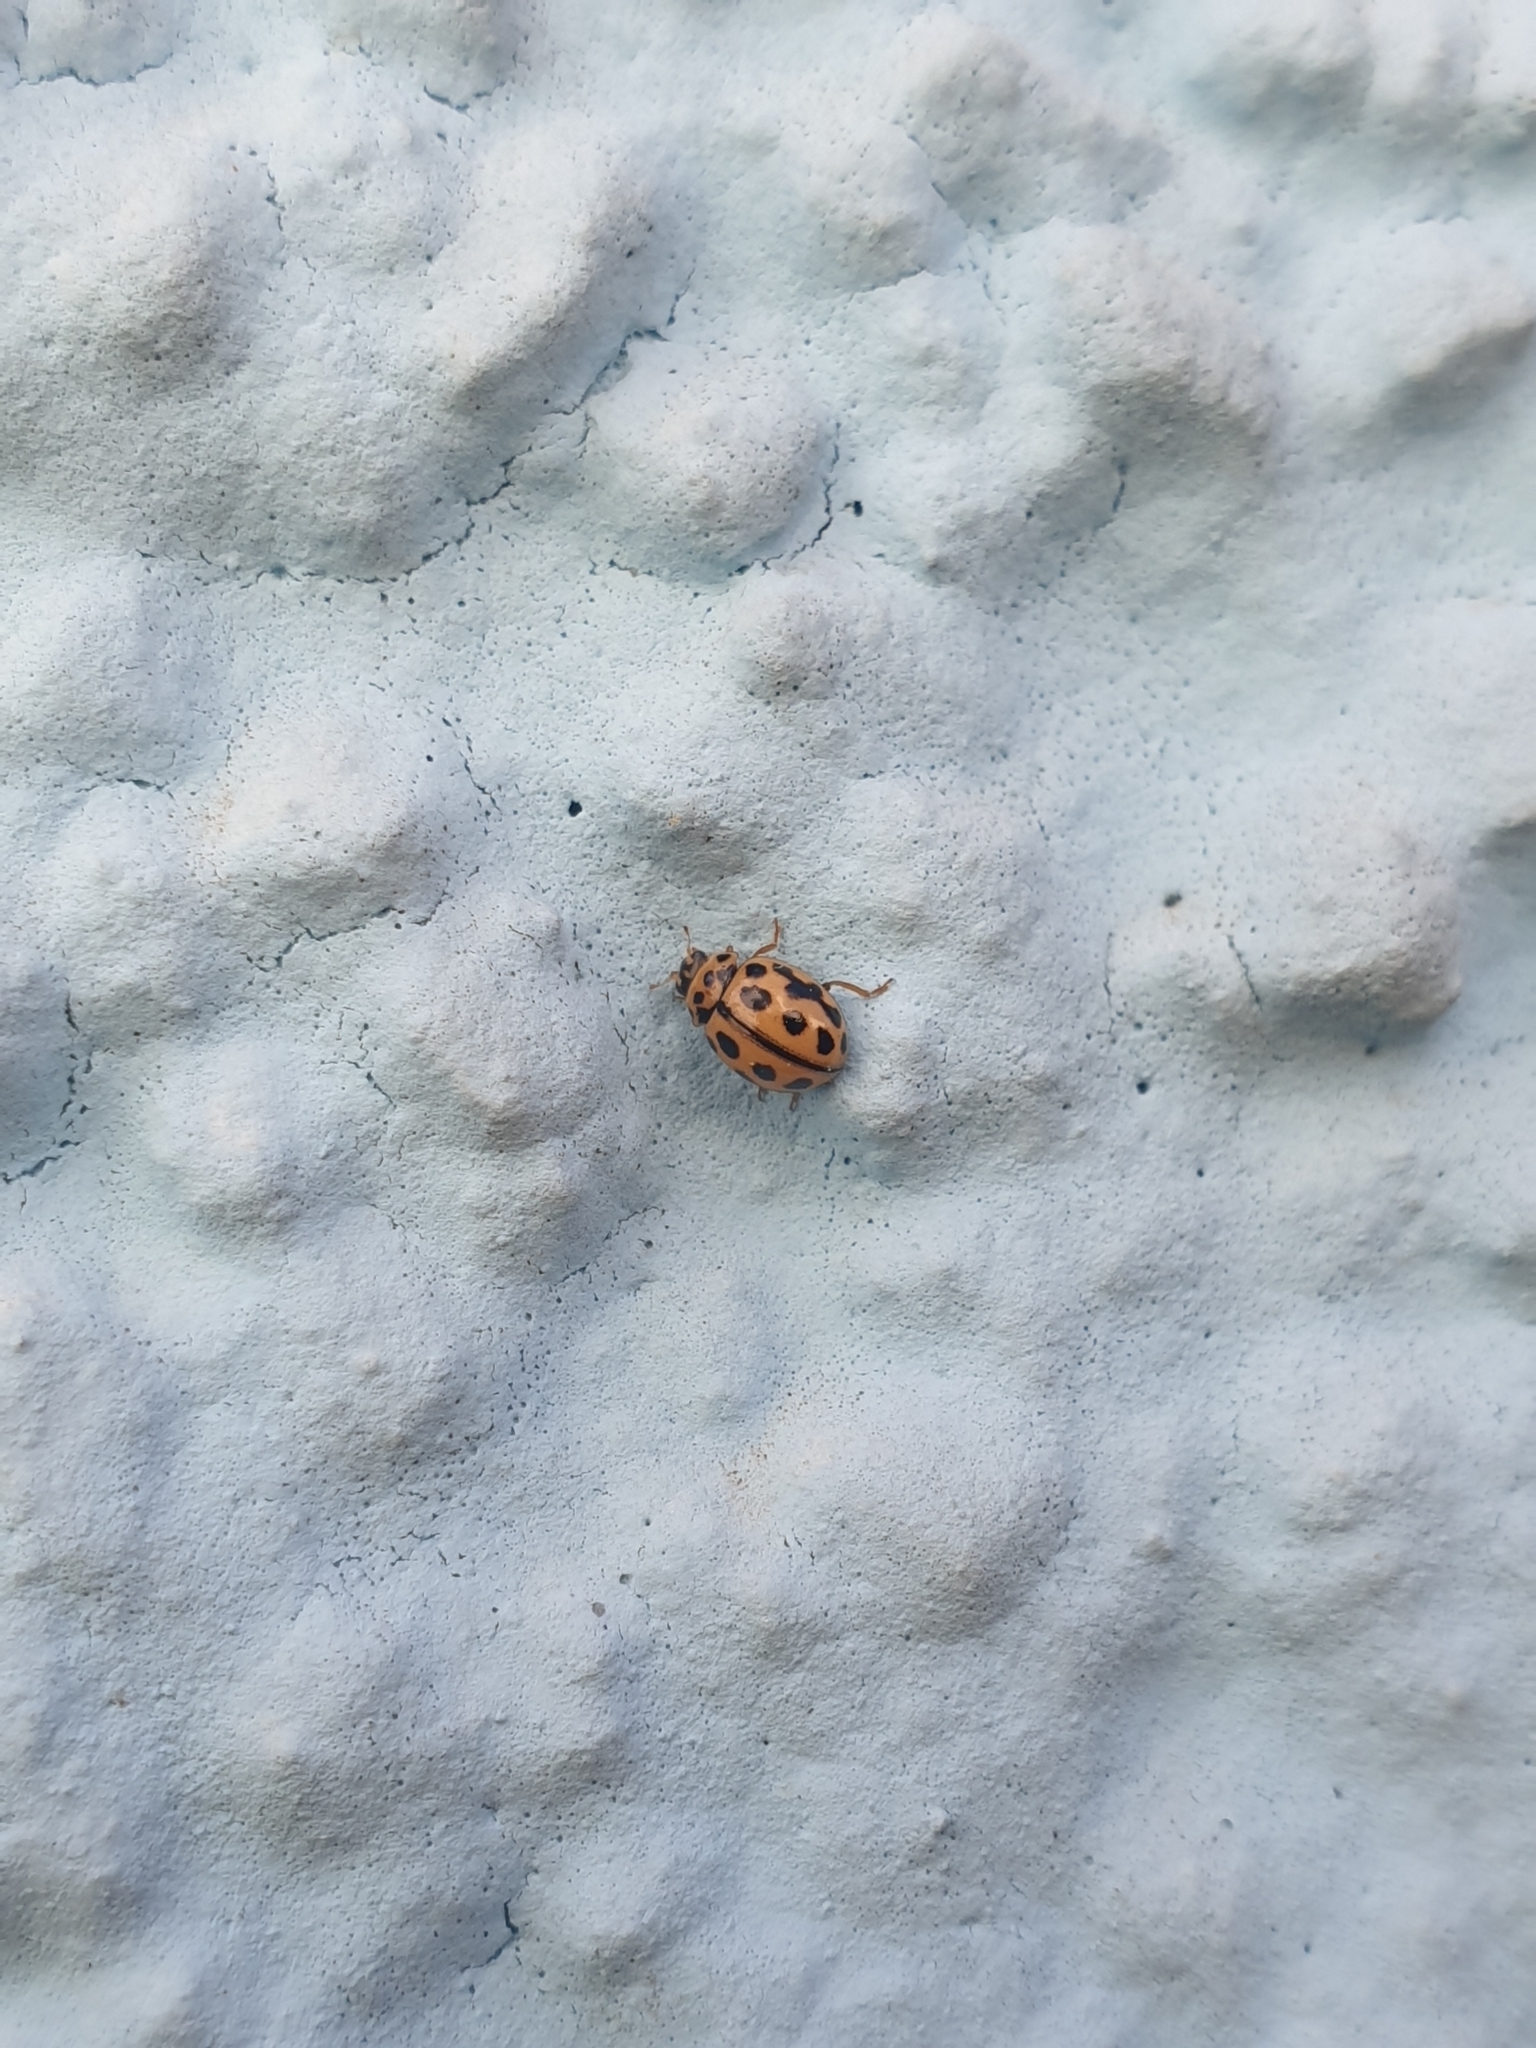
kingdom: Animalia
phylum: Arthropoda
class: Insecta
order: Coleoptera
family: Coccinellidae
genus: Tytthaspis
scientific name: Tytthaspis sedecimpunctata
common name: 16-spot ladybird
